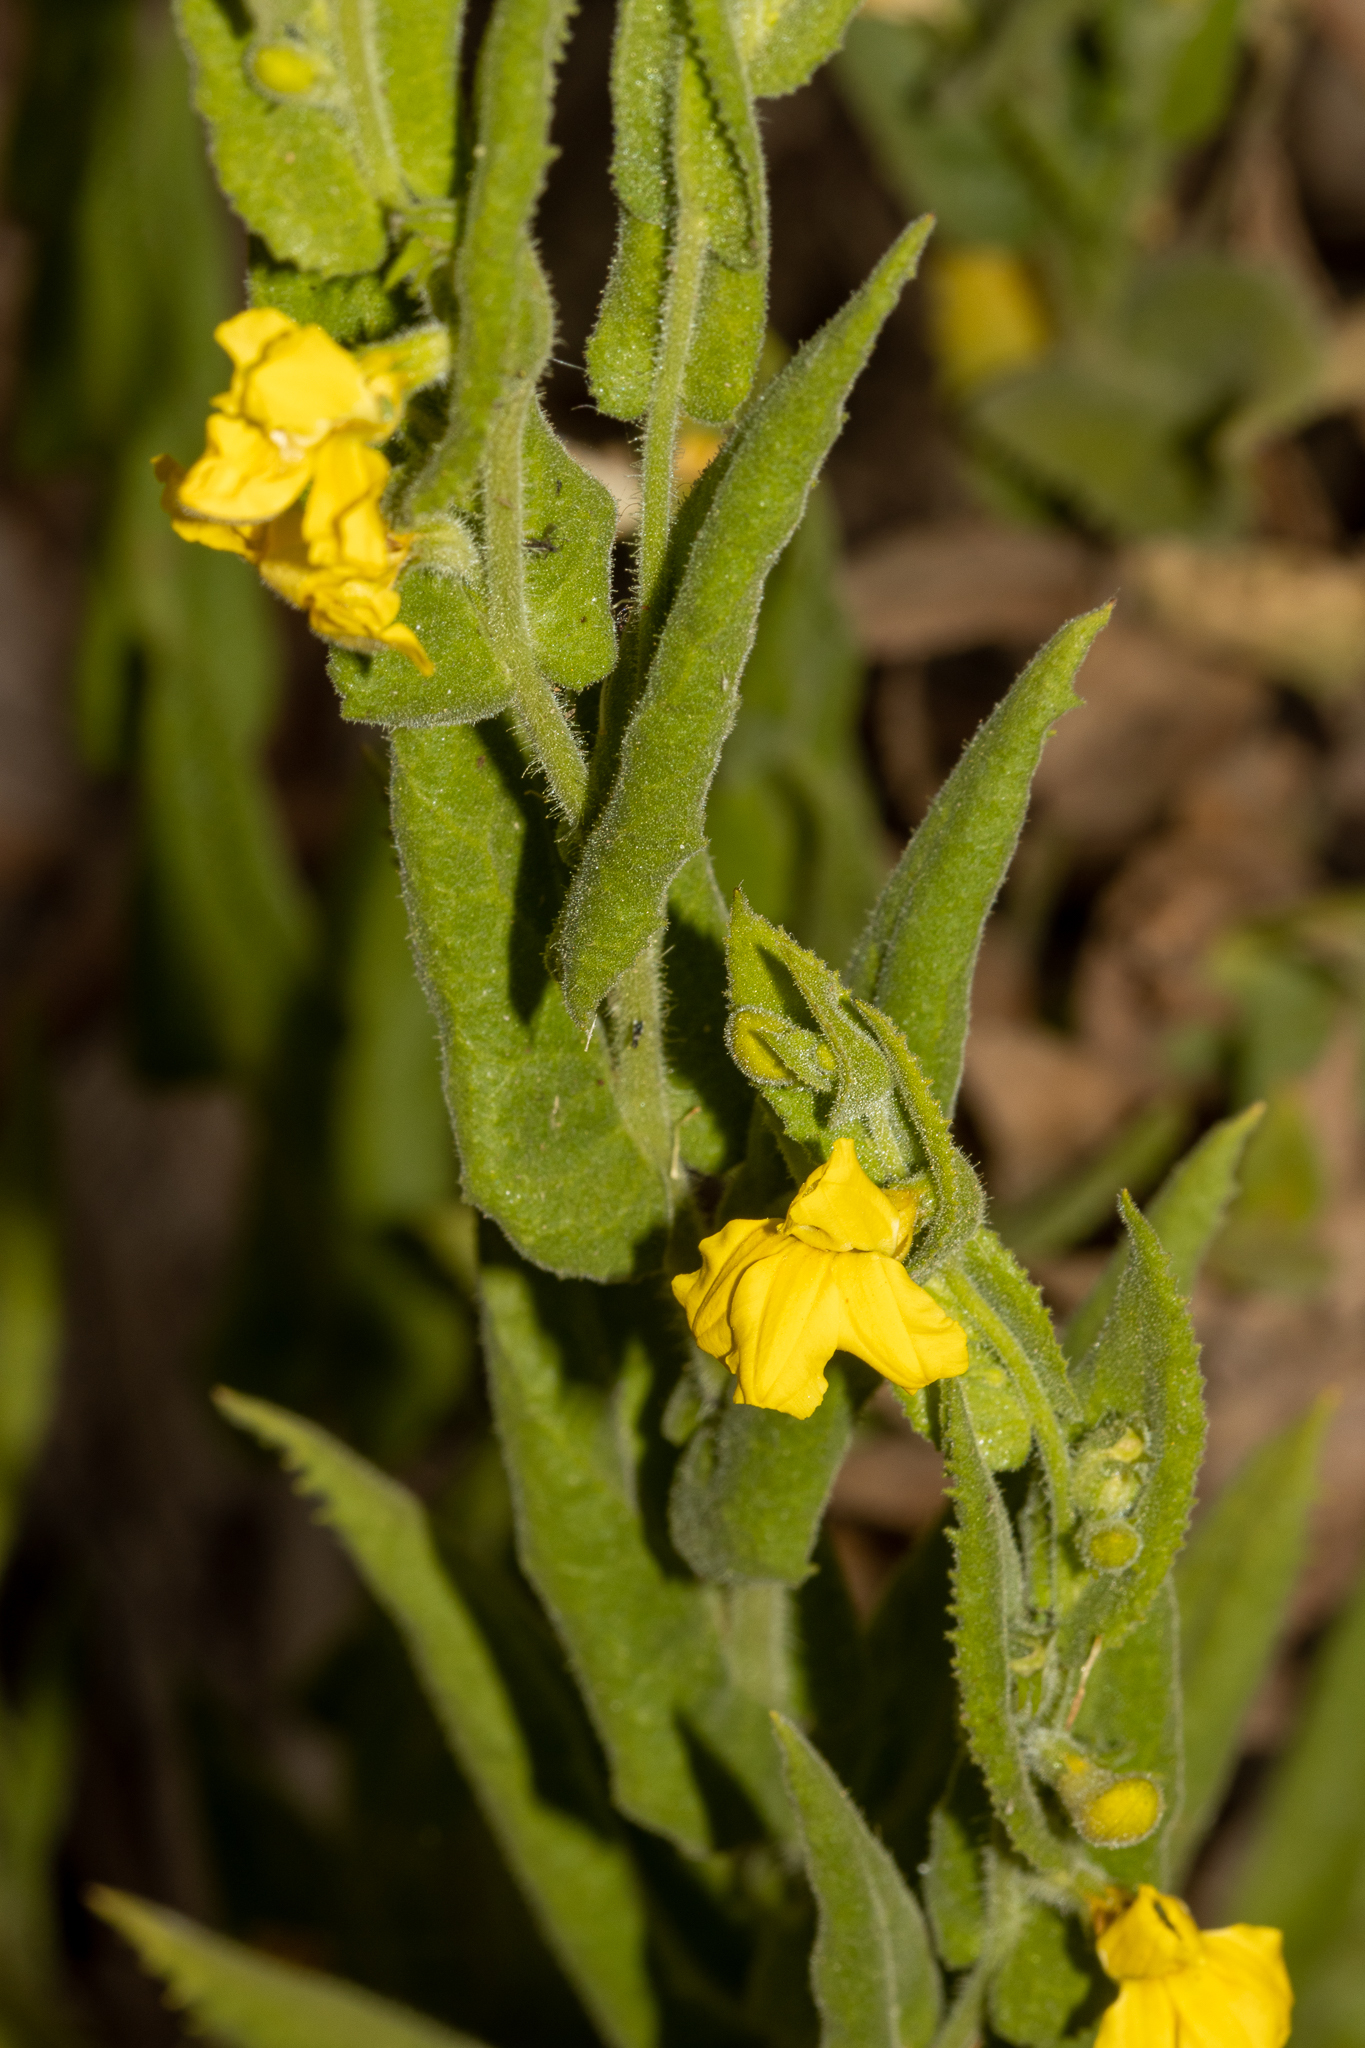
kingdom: Plantae
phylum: Tracheophyta
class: Magnoliopsida
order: Asterales
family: Goodeniaceae
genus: Goodenia
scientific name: Goodenia amplexans
